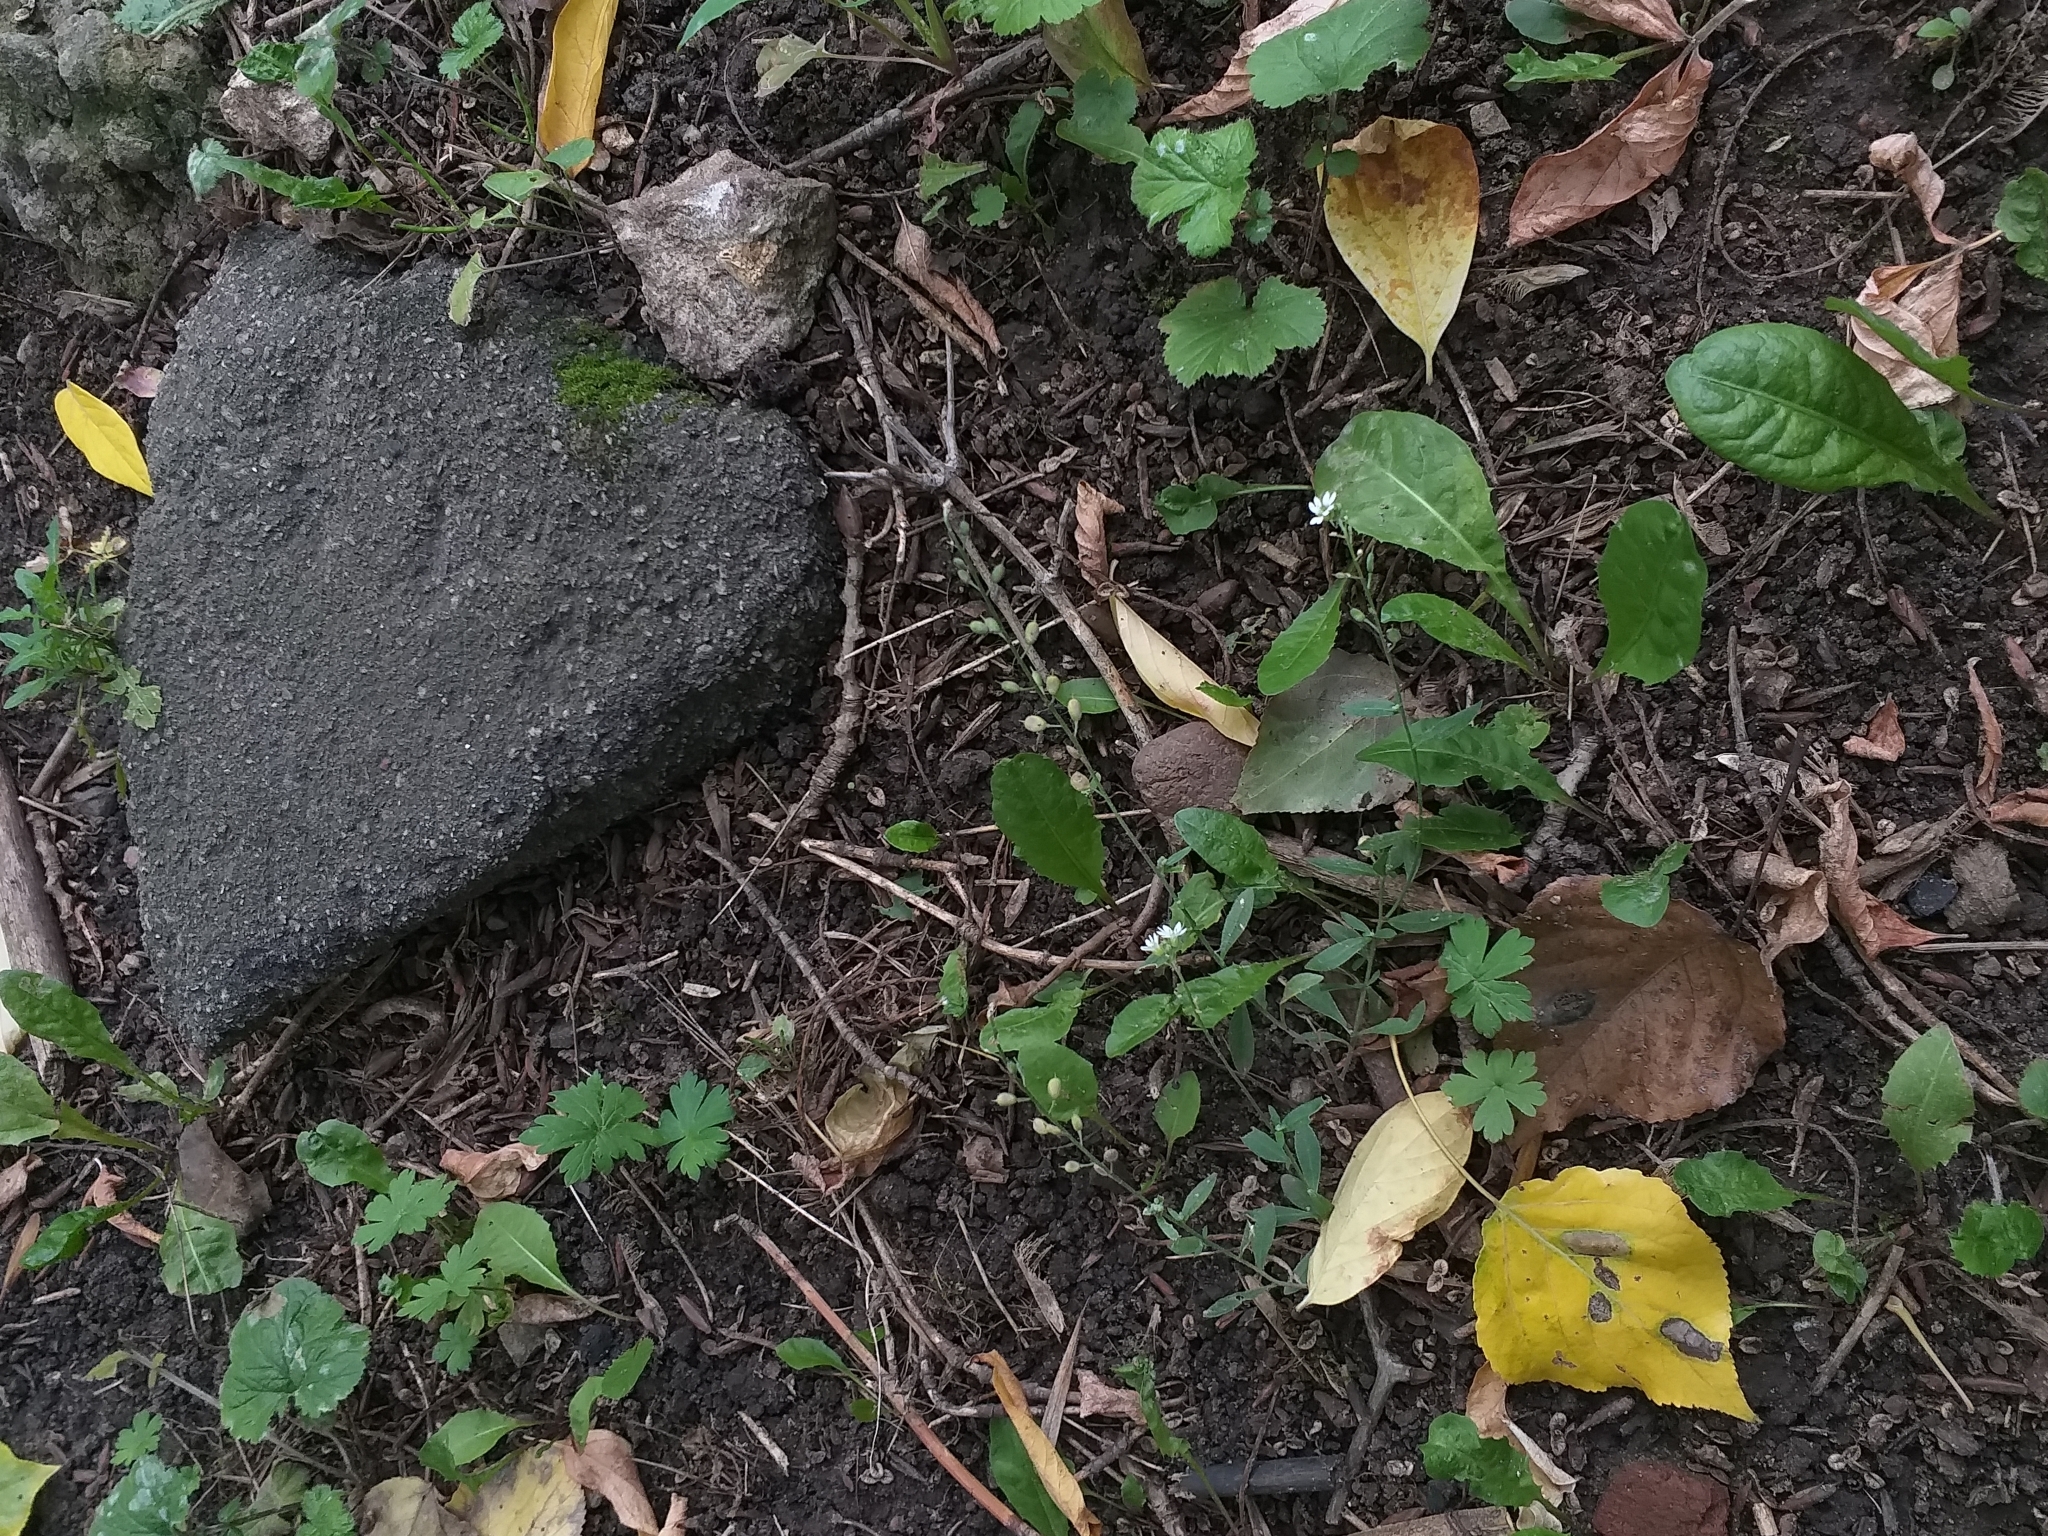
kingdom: Plantae
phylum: Tracheophyta
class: Magnoliopsida
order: Brassicales
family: Brassicaceae
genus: Berteroa
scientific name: Berteroa incana
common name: Hoary alison
